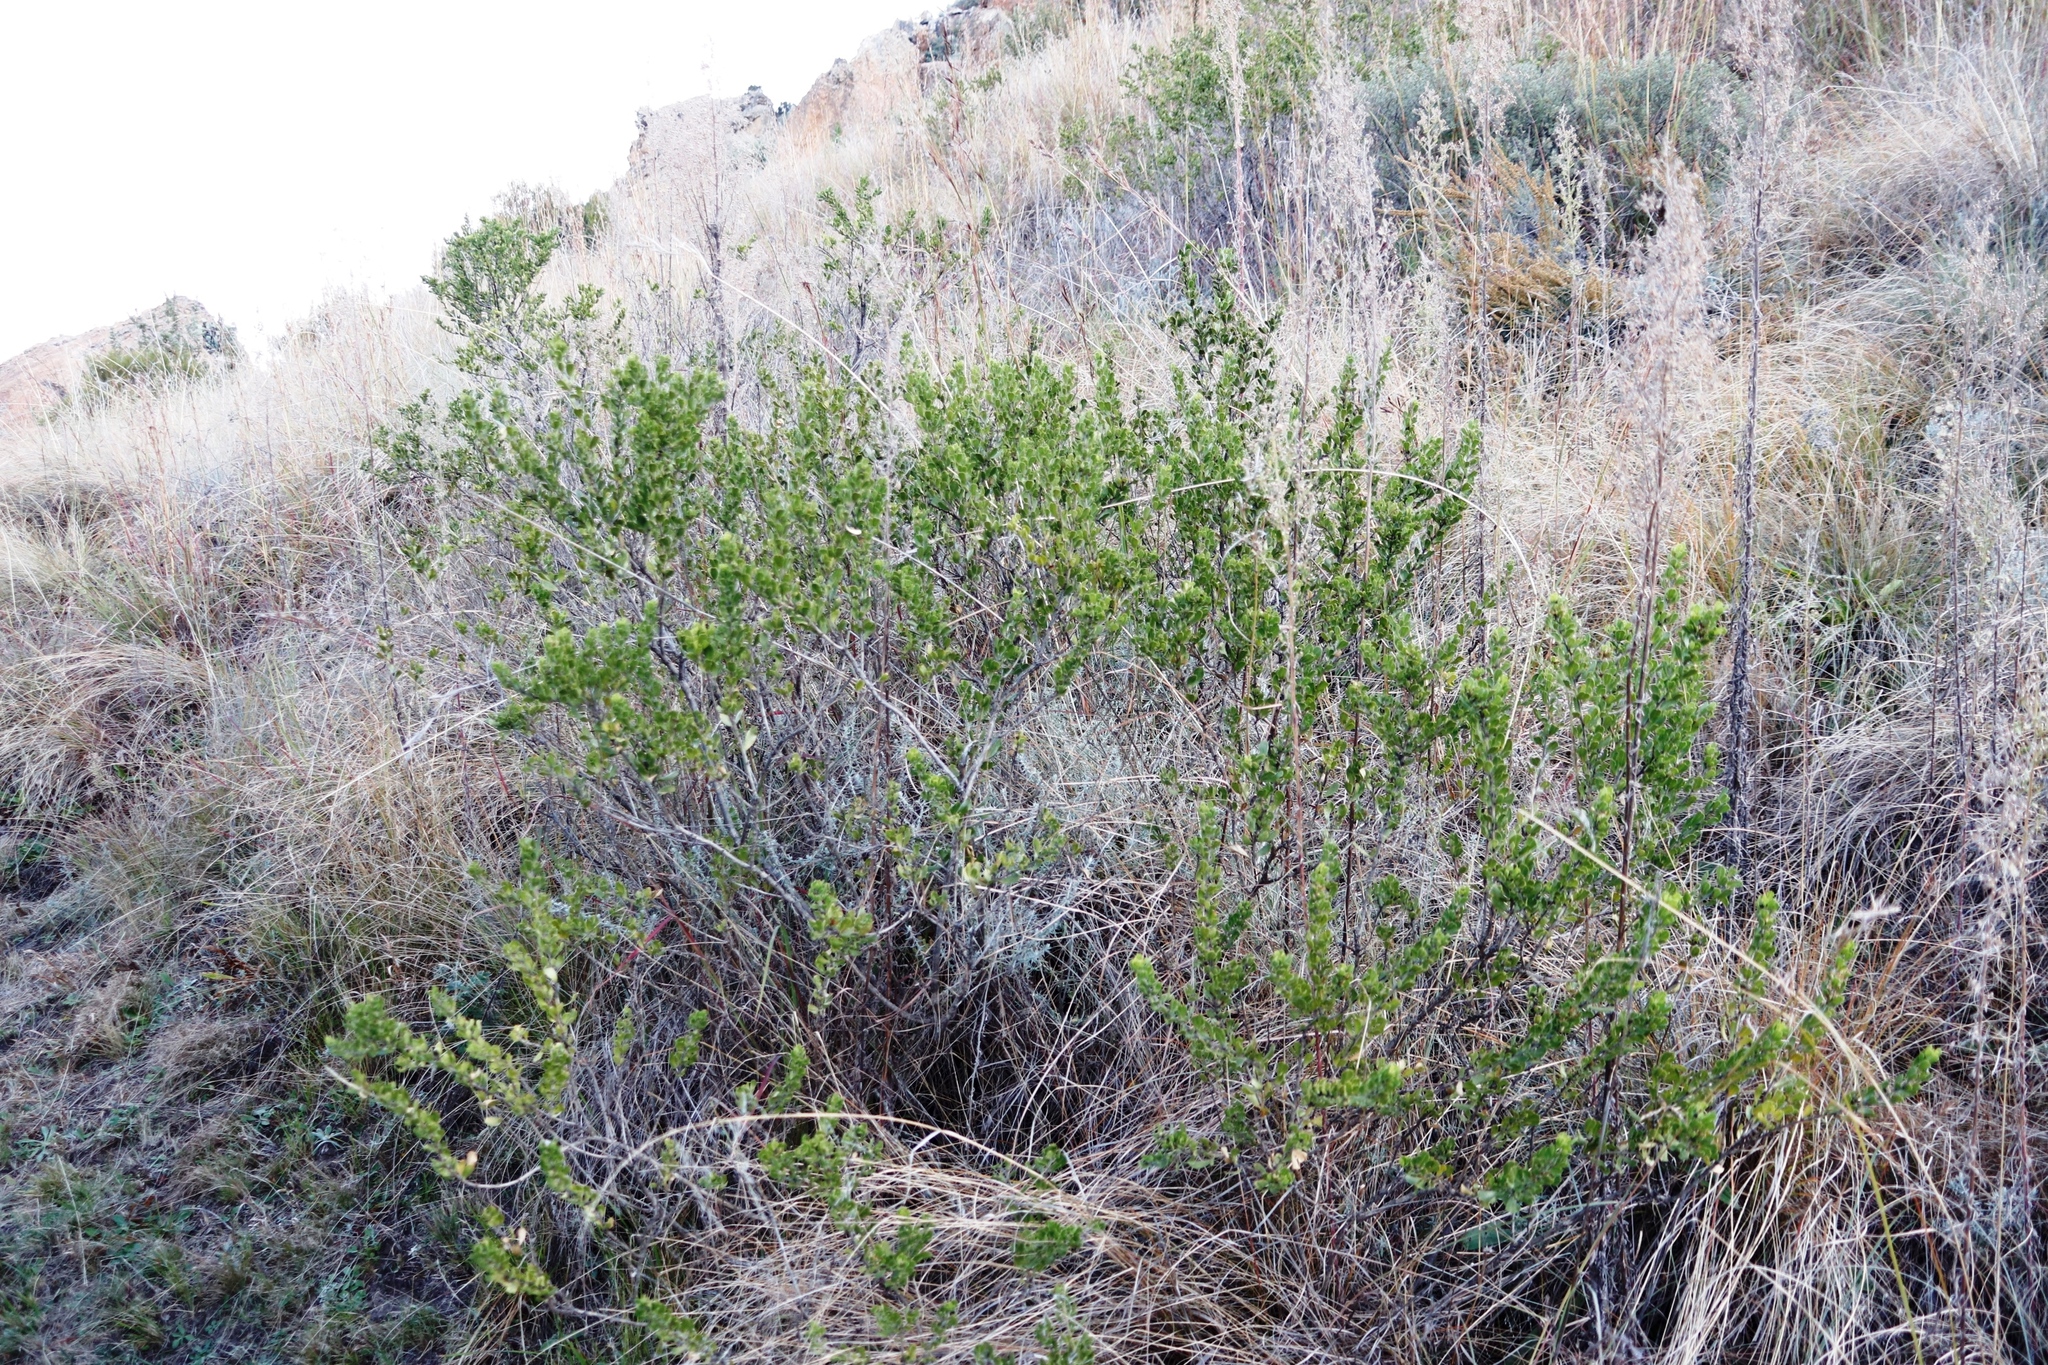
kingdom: Plantae
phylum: Tracheophyta
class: Magnoliopsida
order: Fabales
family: Fabaceae
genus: Psoralea
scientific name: Psoralea polysticta
